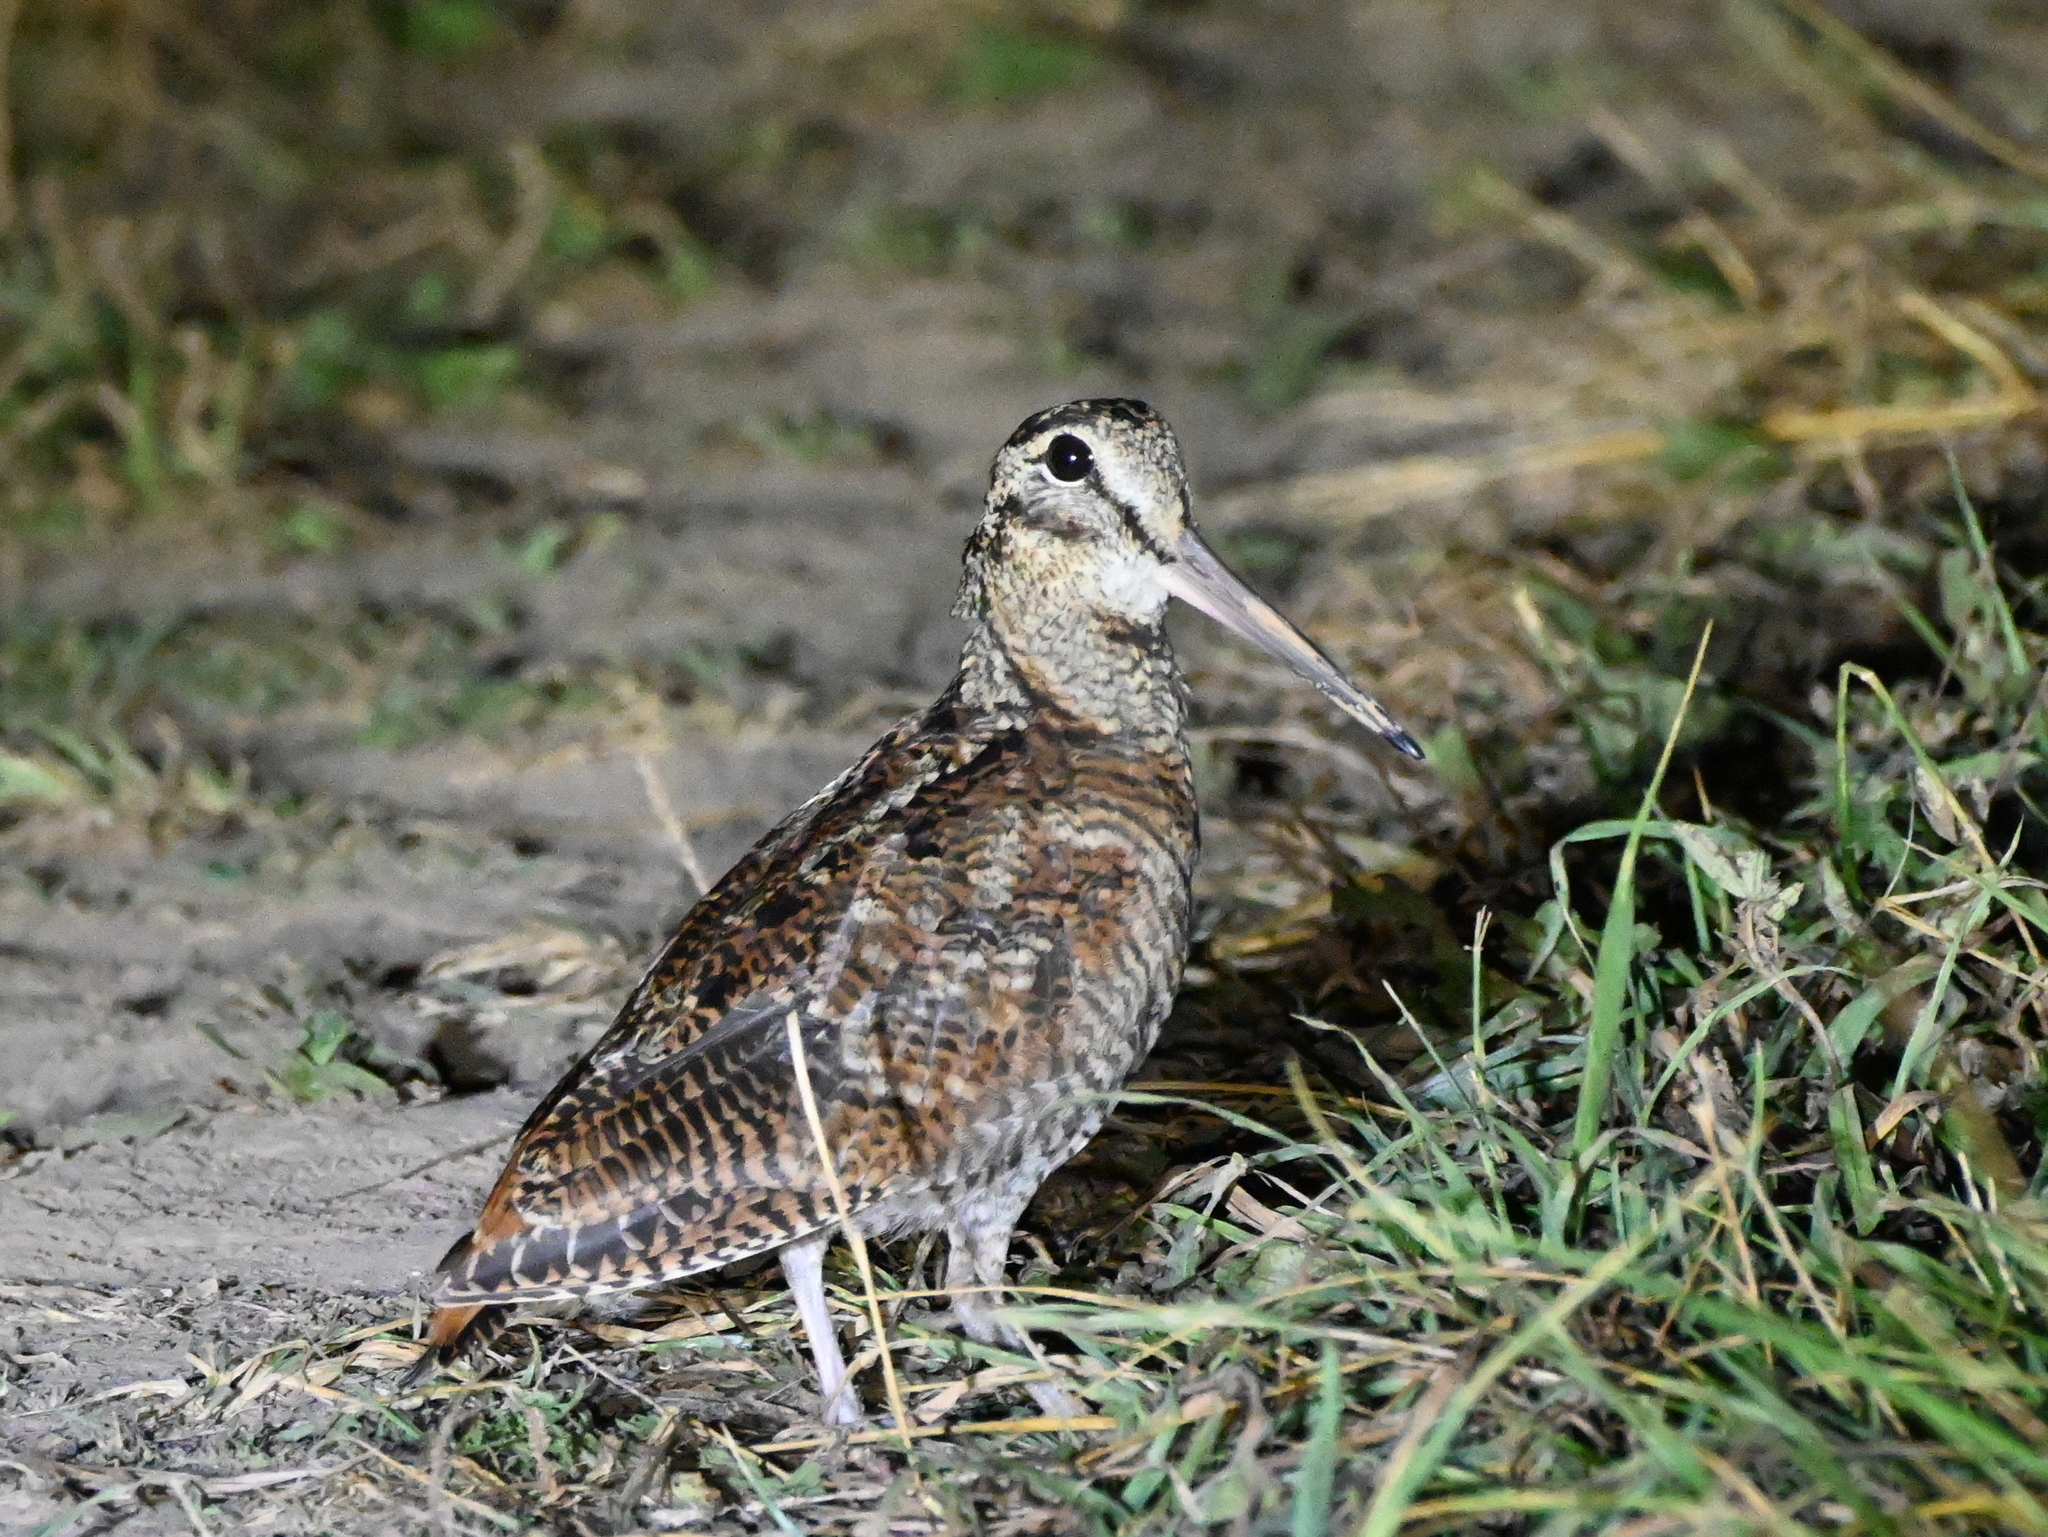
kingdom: Animalia
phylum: Chordata
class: Aves
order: Charadriiformes
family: Scolopacidae
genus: Scolopax
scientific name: Scolopax rusticola
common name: Eurasian woodcock
